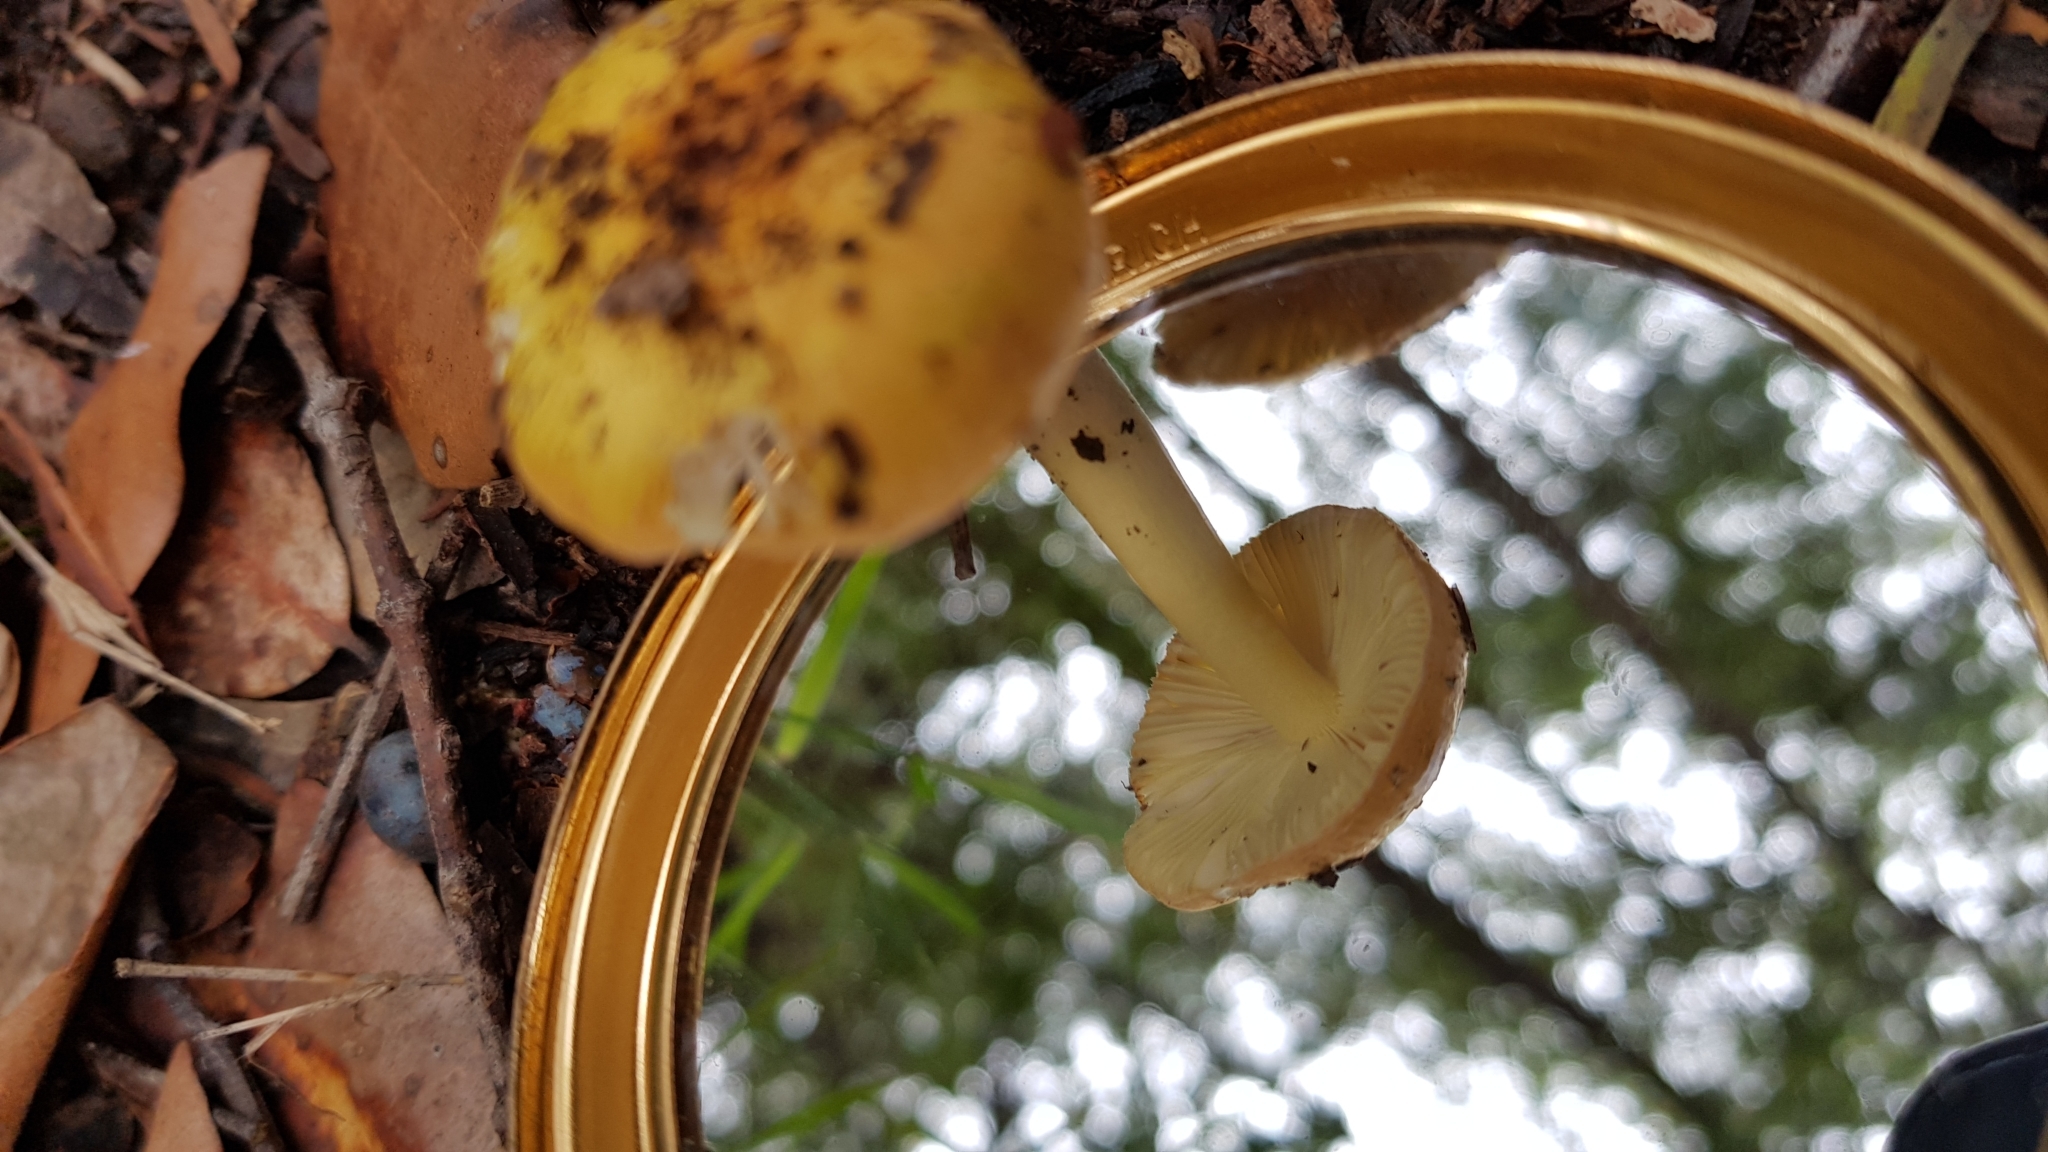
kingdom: Fungi
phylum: Basidiomycota
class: Agaricomycetes
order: Agaricales
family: Amanitaceae
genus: Amanita
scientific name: Amanita xanthocephala
